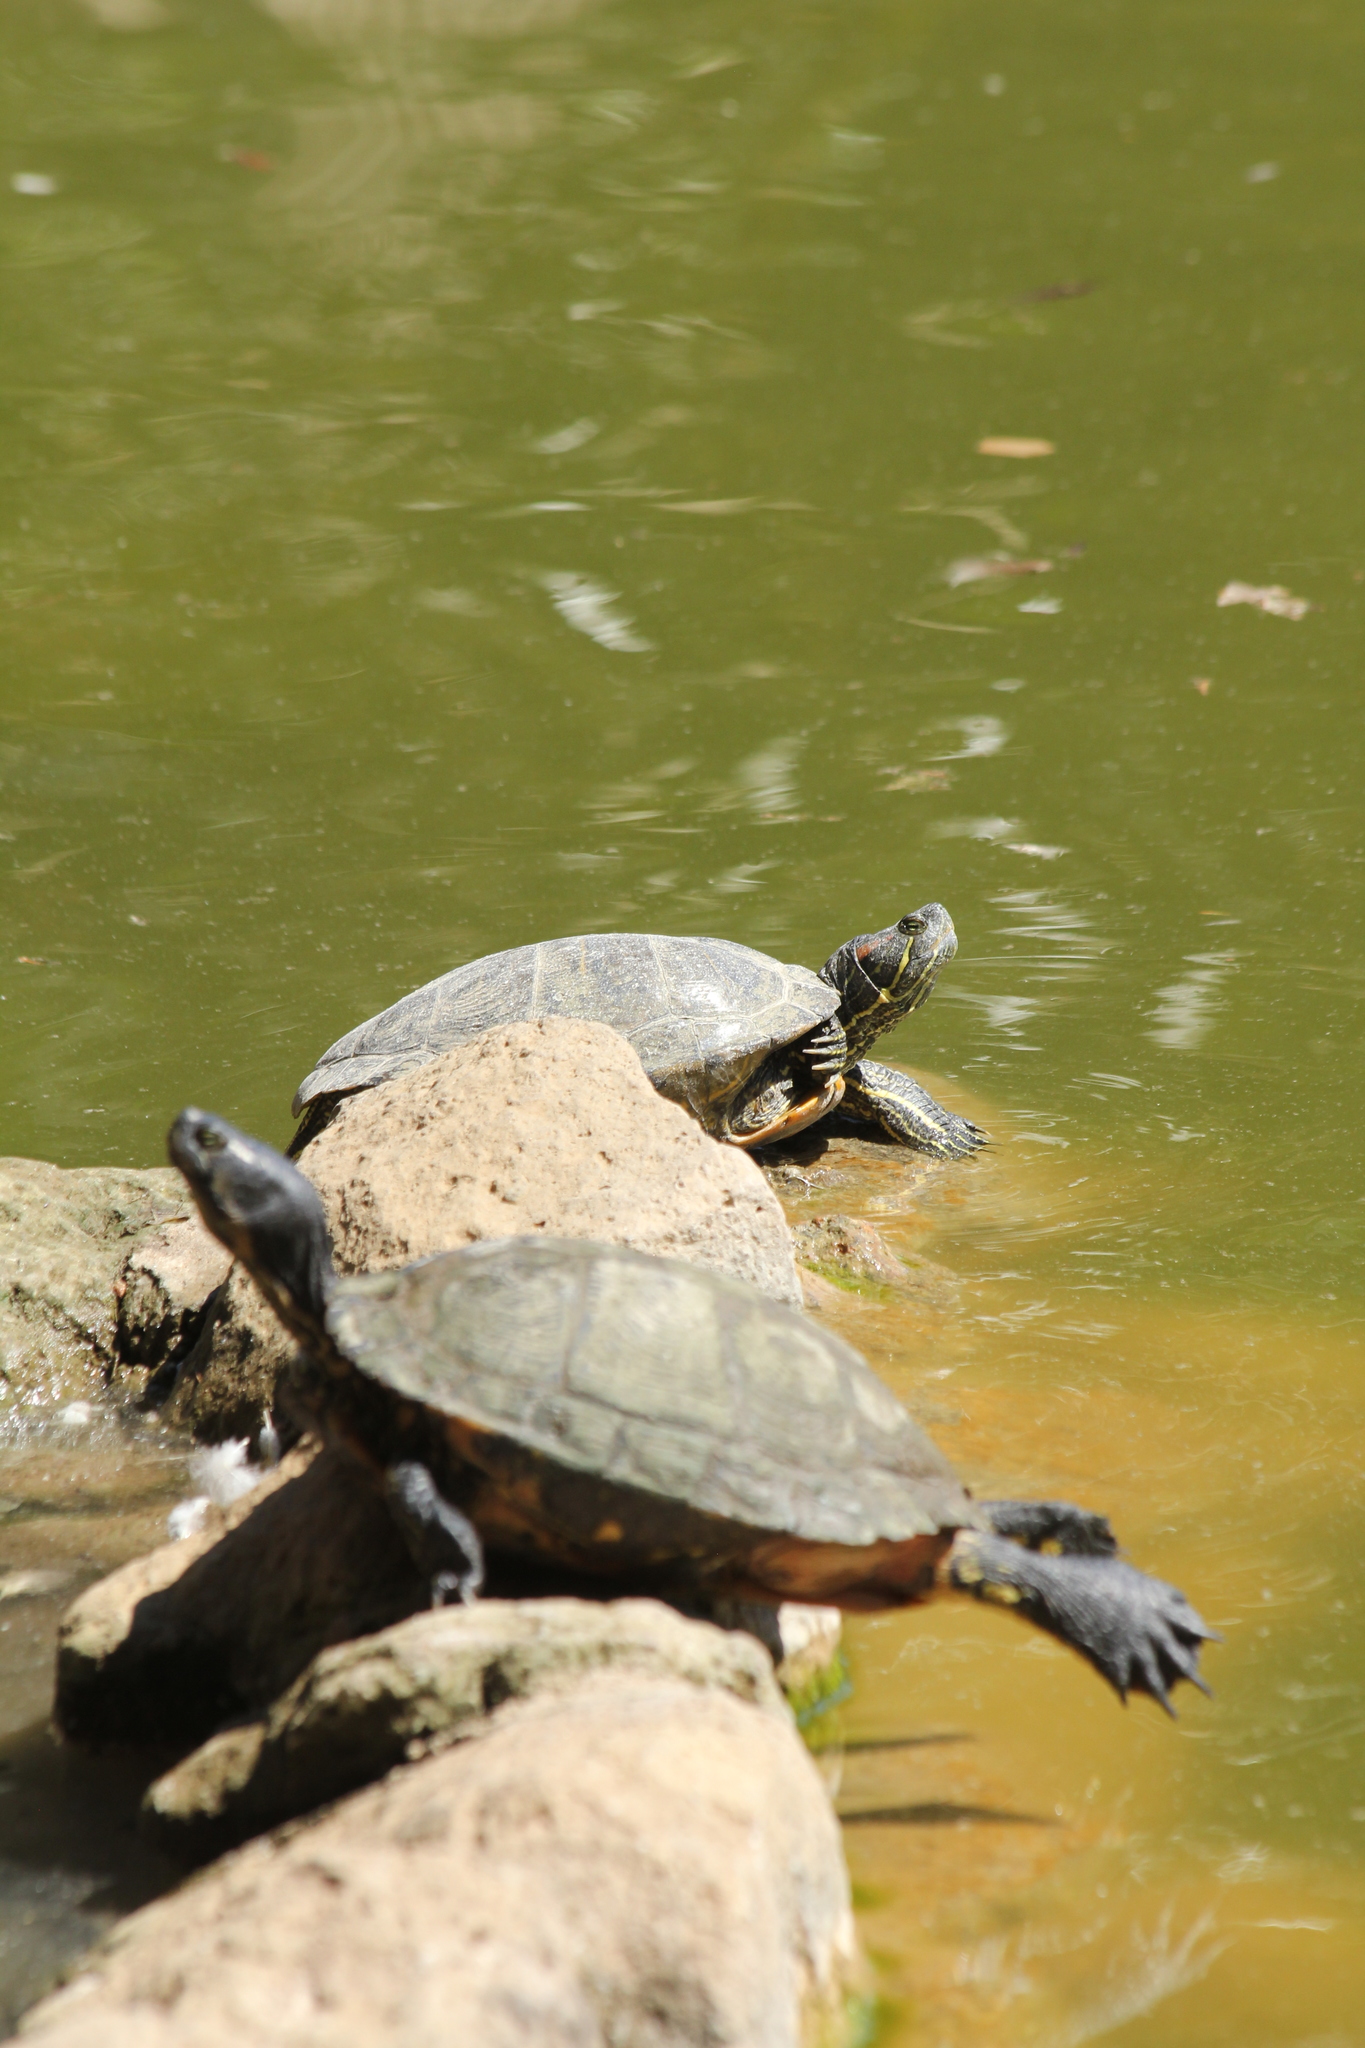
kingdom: Animalia
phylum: Chordata
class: Testudines
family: Emydidae
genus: Trachemys
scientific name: Trachemys scripta
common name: Slider
